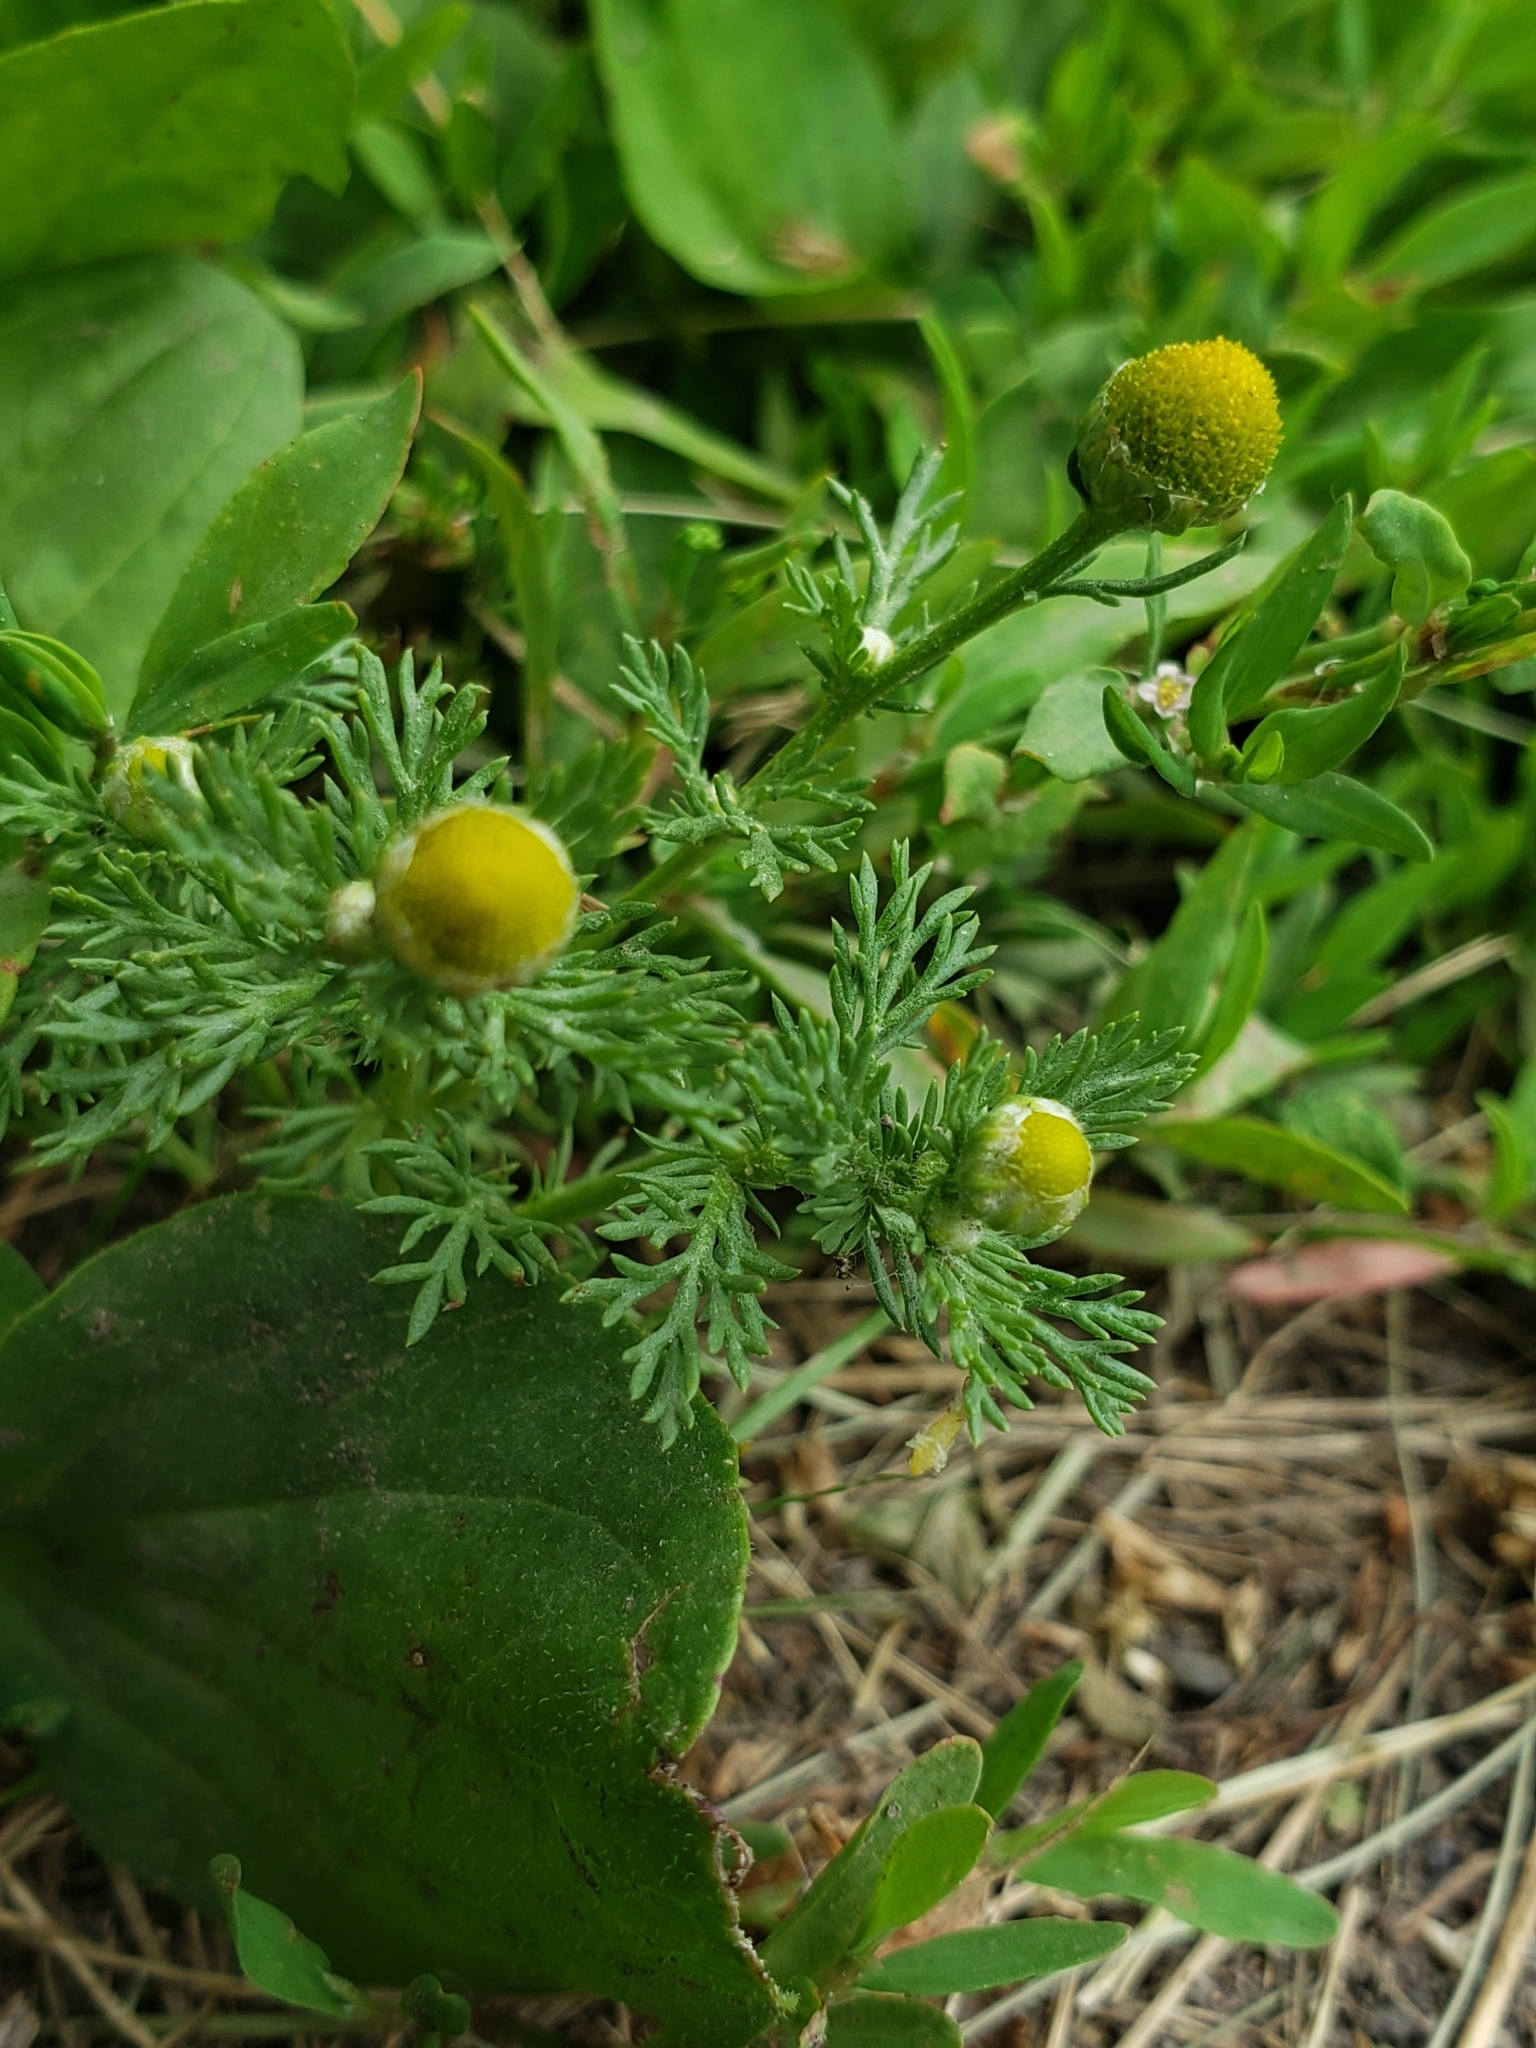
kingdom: Plantae
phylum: Tracheophyta
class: Magnoliopsida
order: Asterales
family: Asteraceae
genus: Matricaria
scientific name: Matricaria discoidea
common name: Disc mayweed
